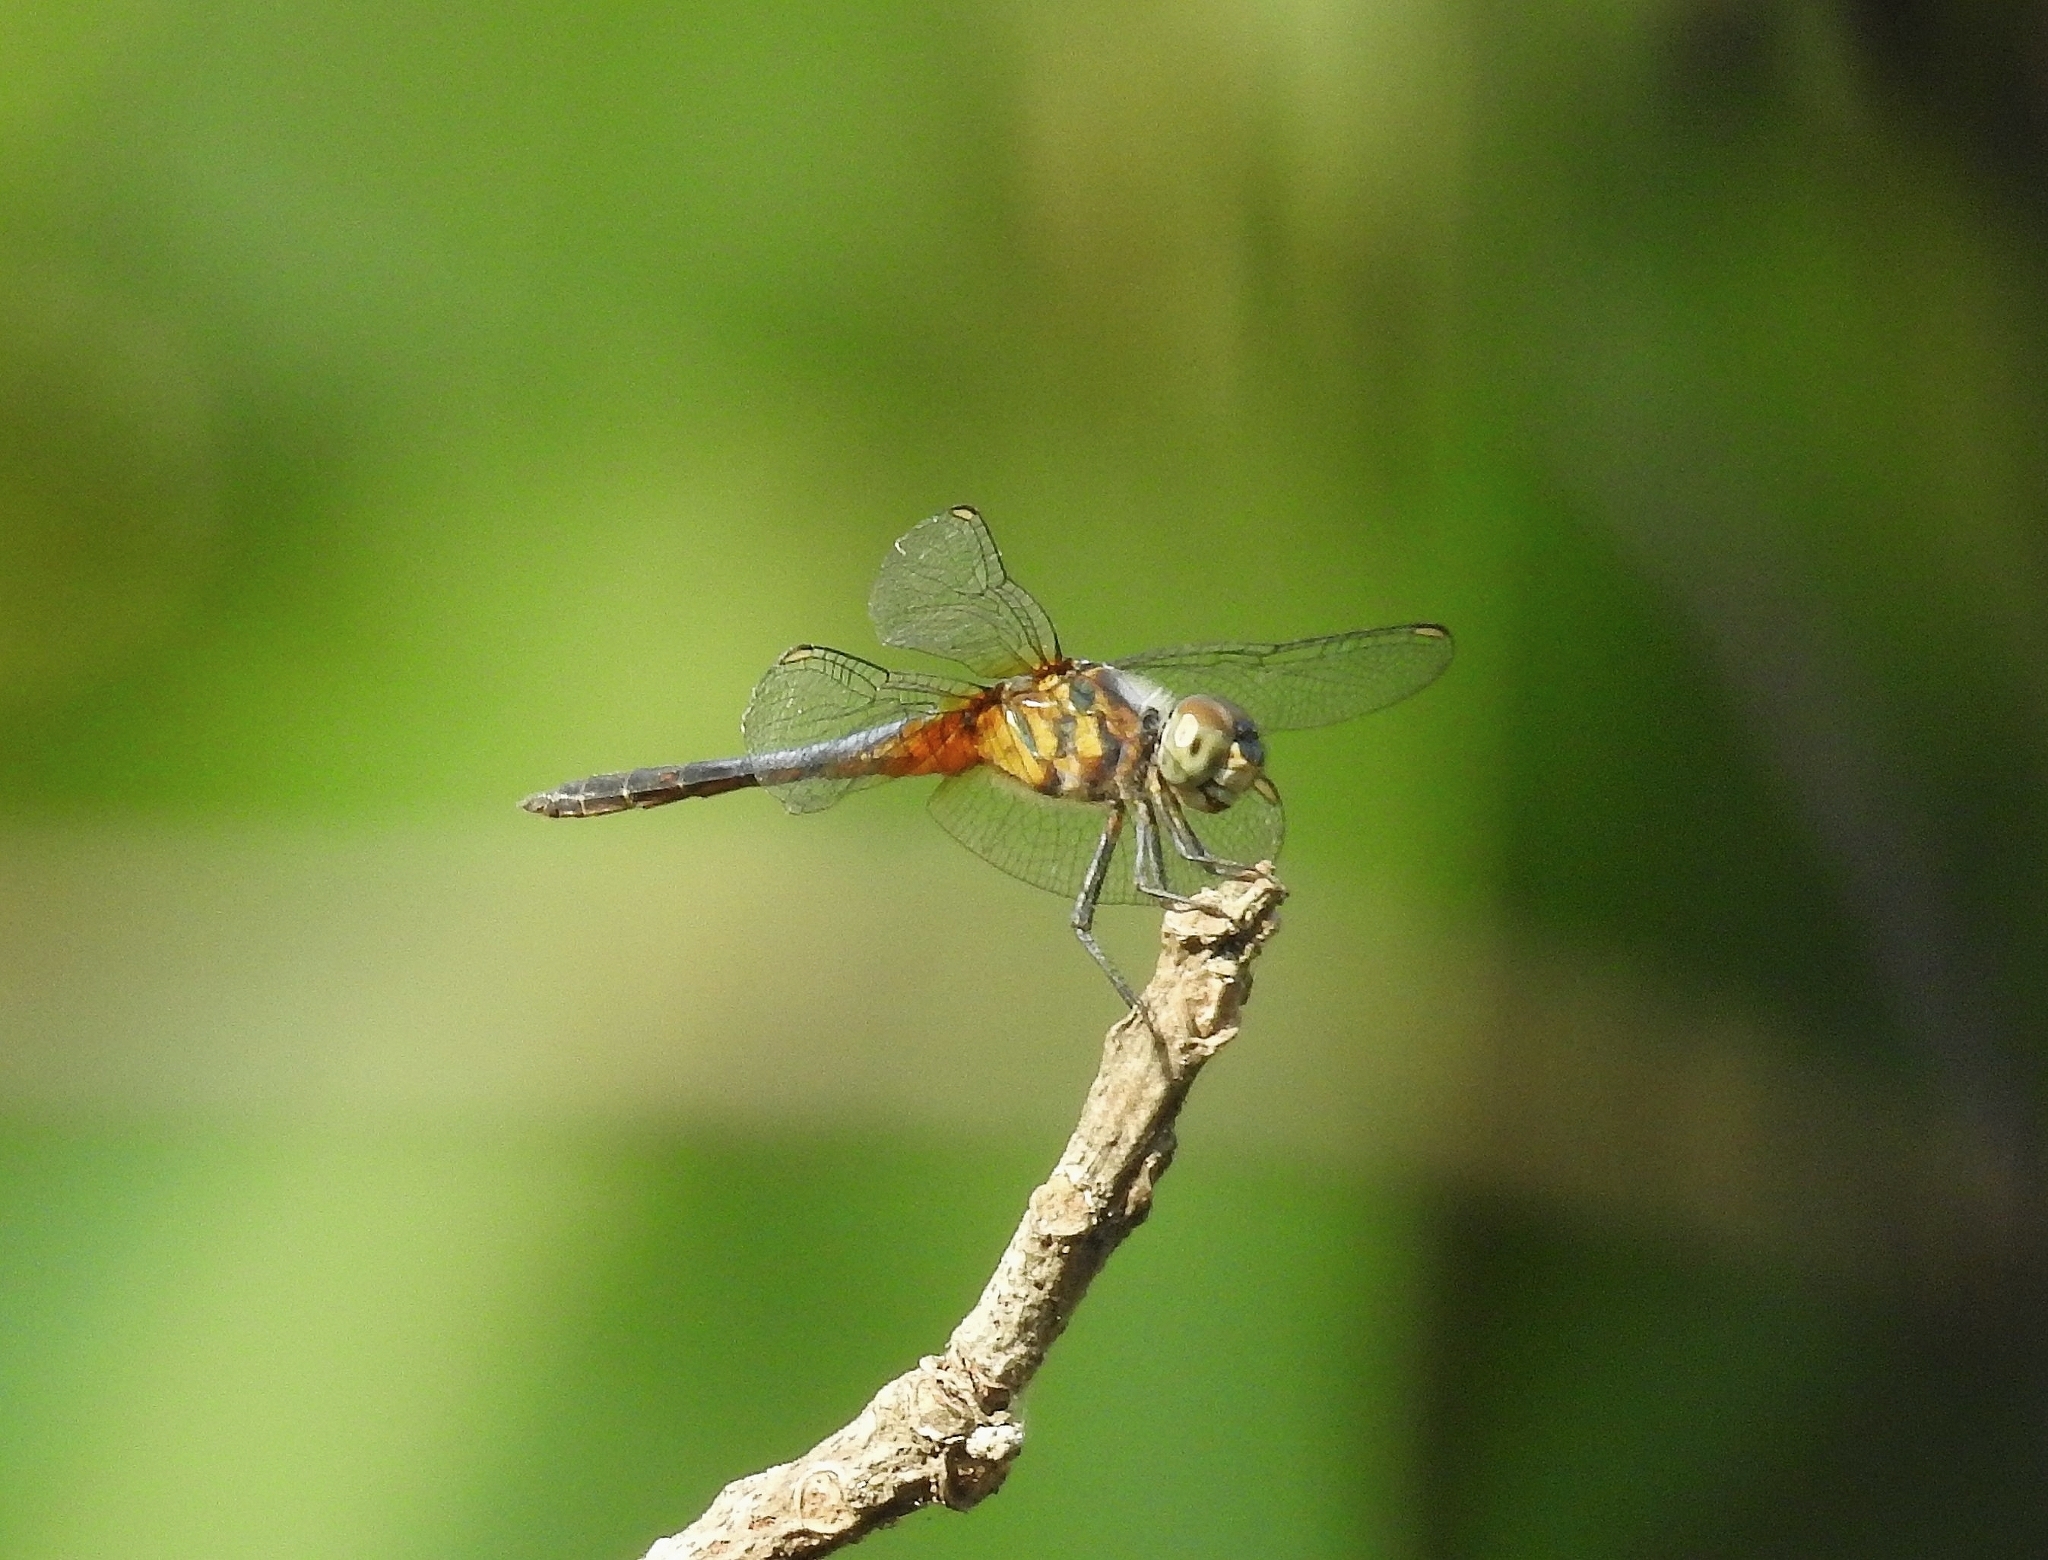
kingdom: Animalia
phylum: Arthropoda
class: Insecta
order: Odonata
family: Libellulidae
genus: Brachydiplax
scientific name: Brachydiplax chalybea
